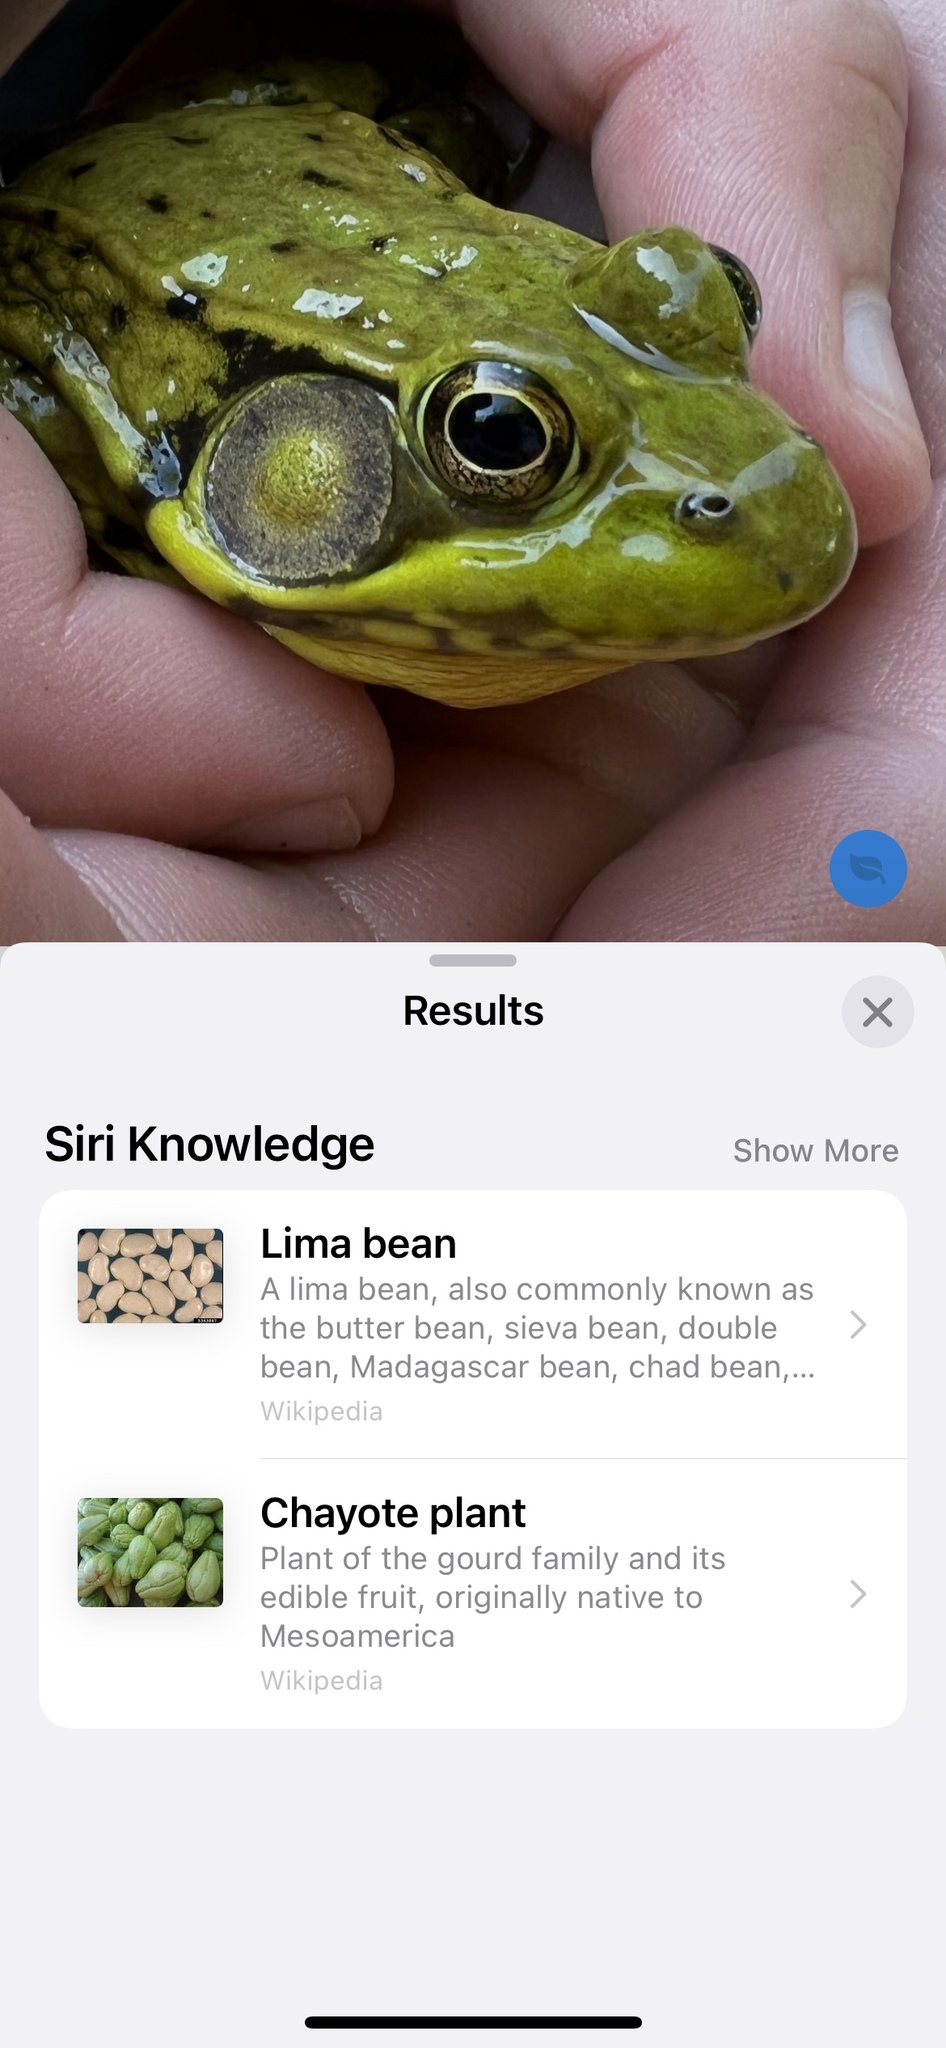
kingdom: Animalia
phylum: Chordata
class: Amphibia
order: Anura
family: Ranidae
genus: Lithobates
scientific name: Lithobates clamitans
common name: Green frog
